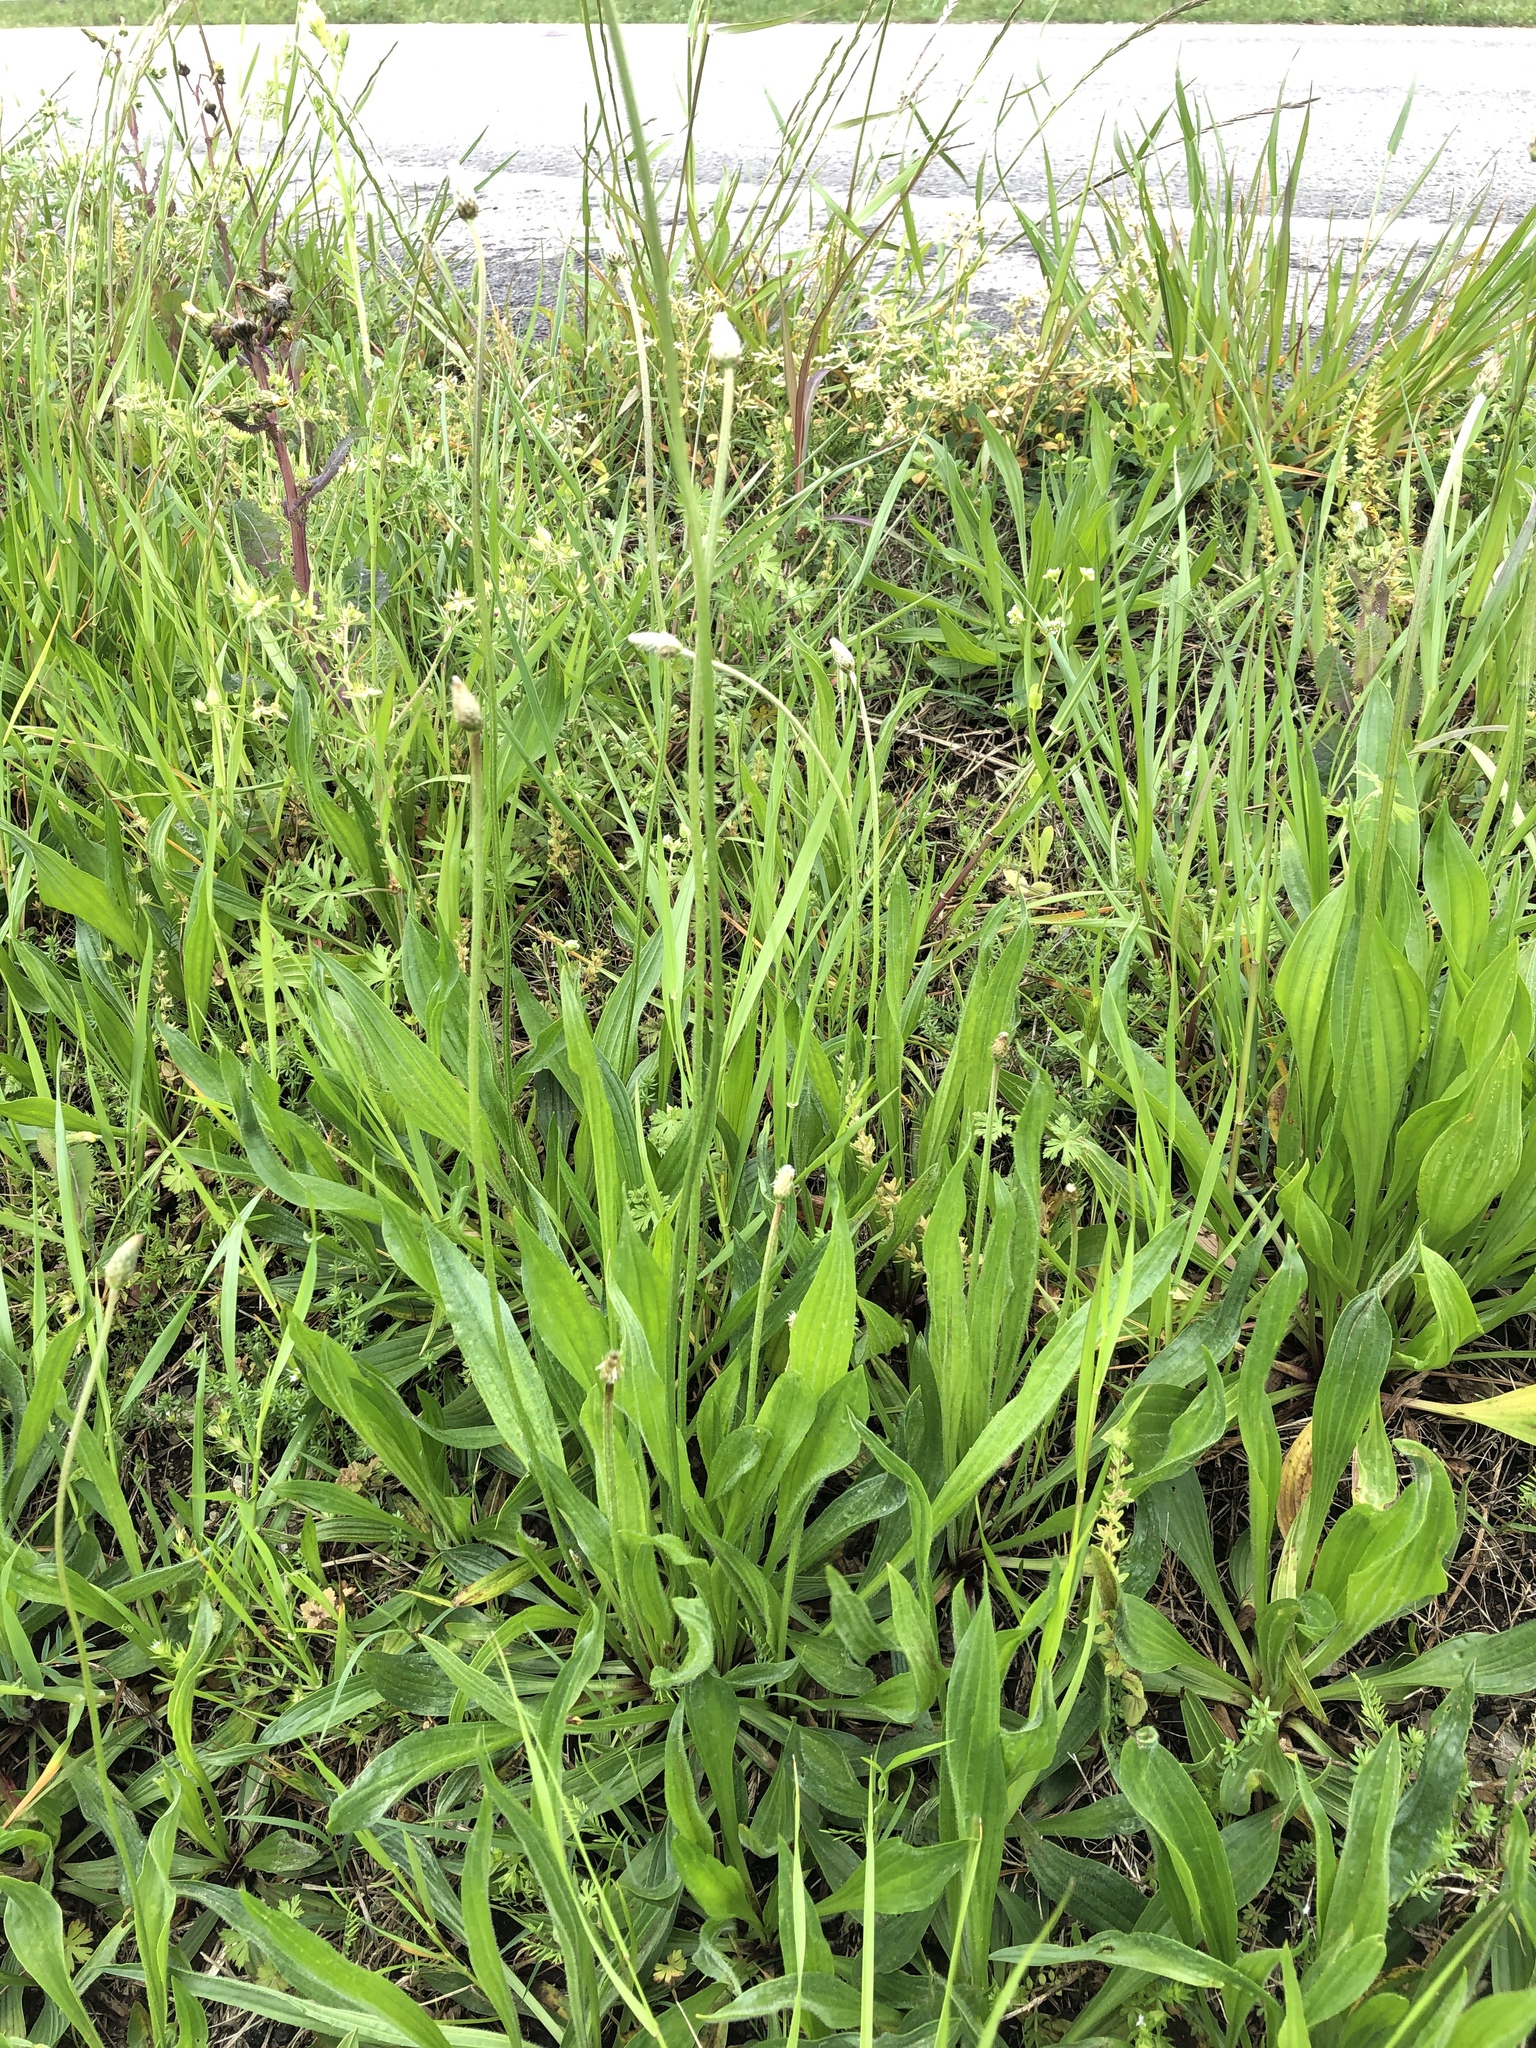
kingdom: Plantae
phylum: Tracheophyta
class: Magnoliopsida
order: Lamiales
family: Plantaginaceae
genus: Plantago
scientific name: Plantago lanceolata
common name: Ribwort plantain
